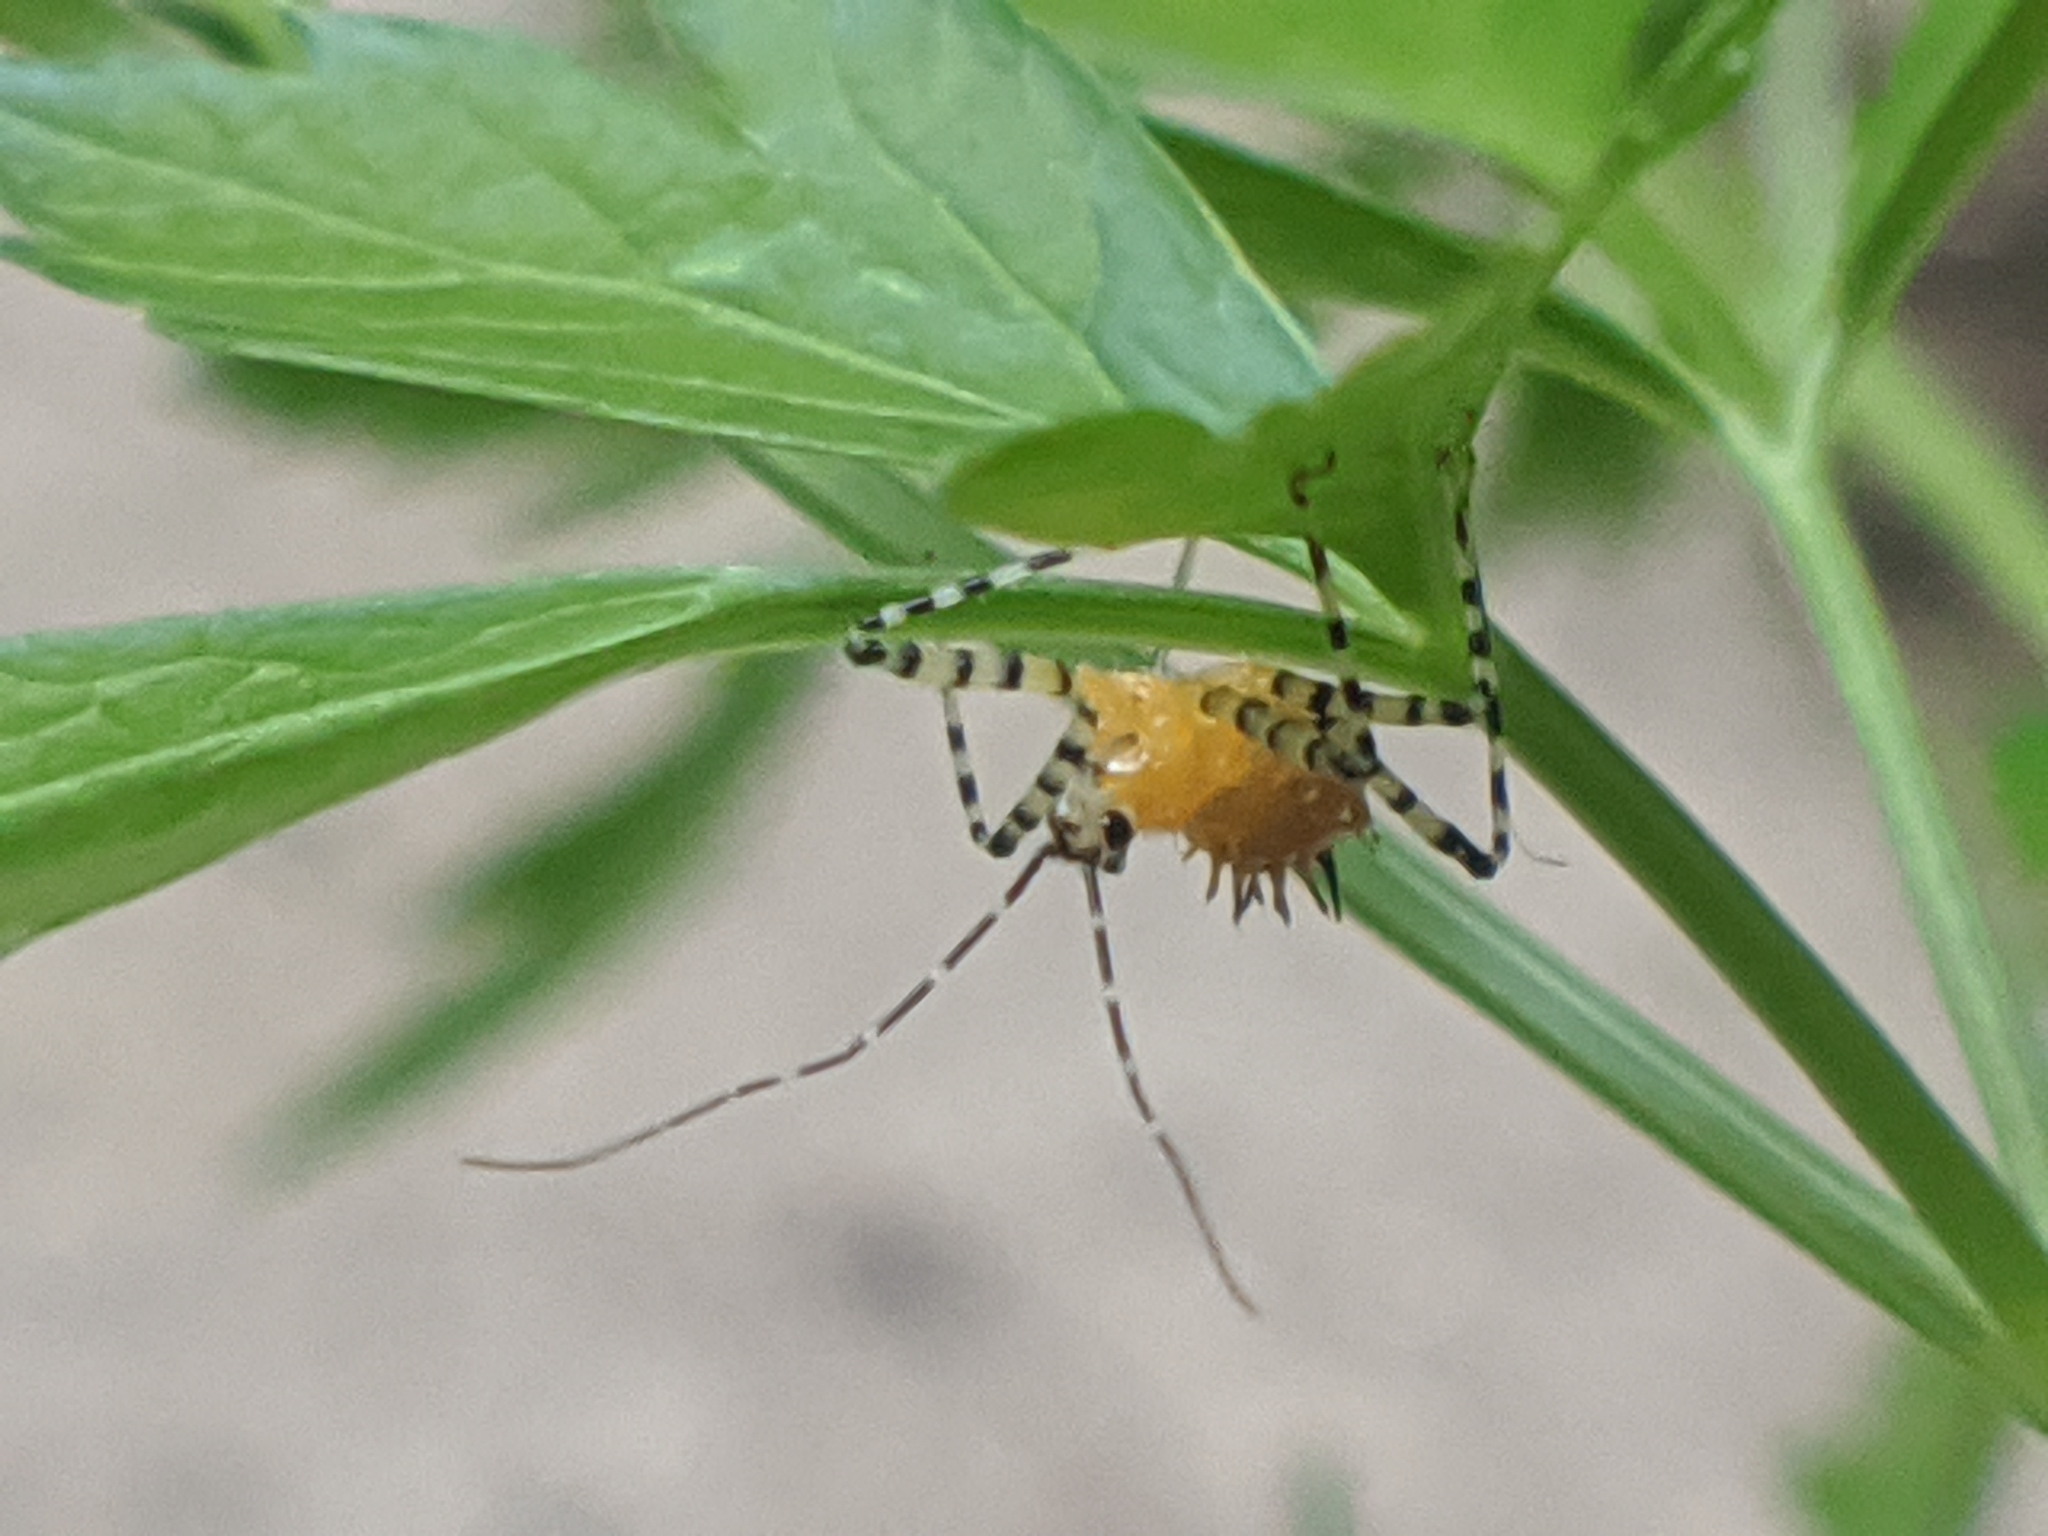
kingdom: Animalia
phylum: Arthropoda
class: Insecta
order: Hemiptera
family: Reduviidae
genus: Pselliopus
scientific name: Pselliopus barberi
